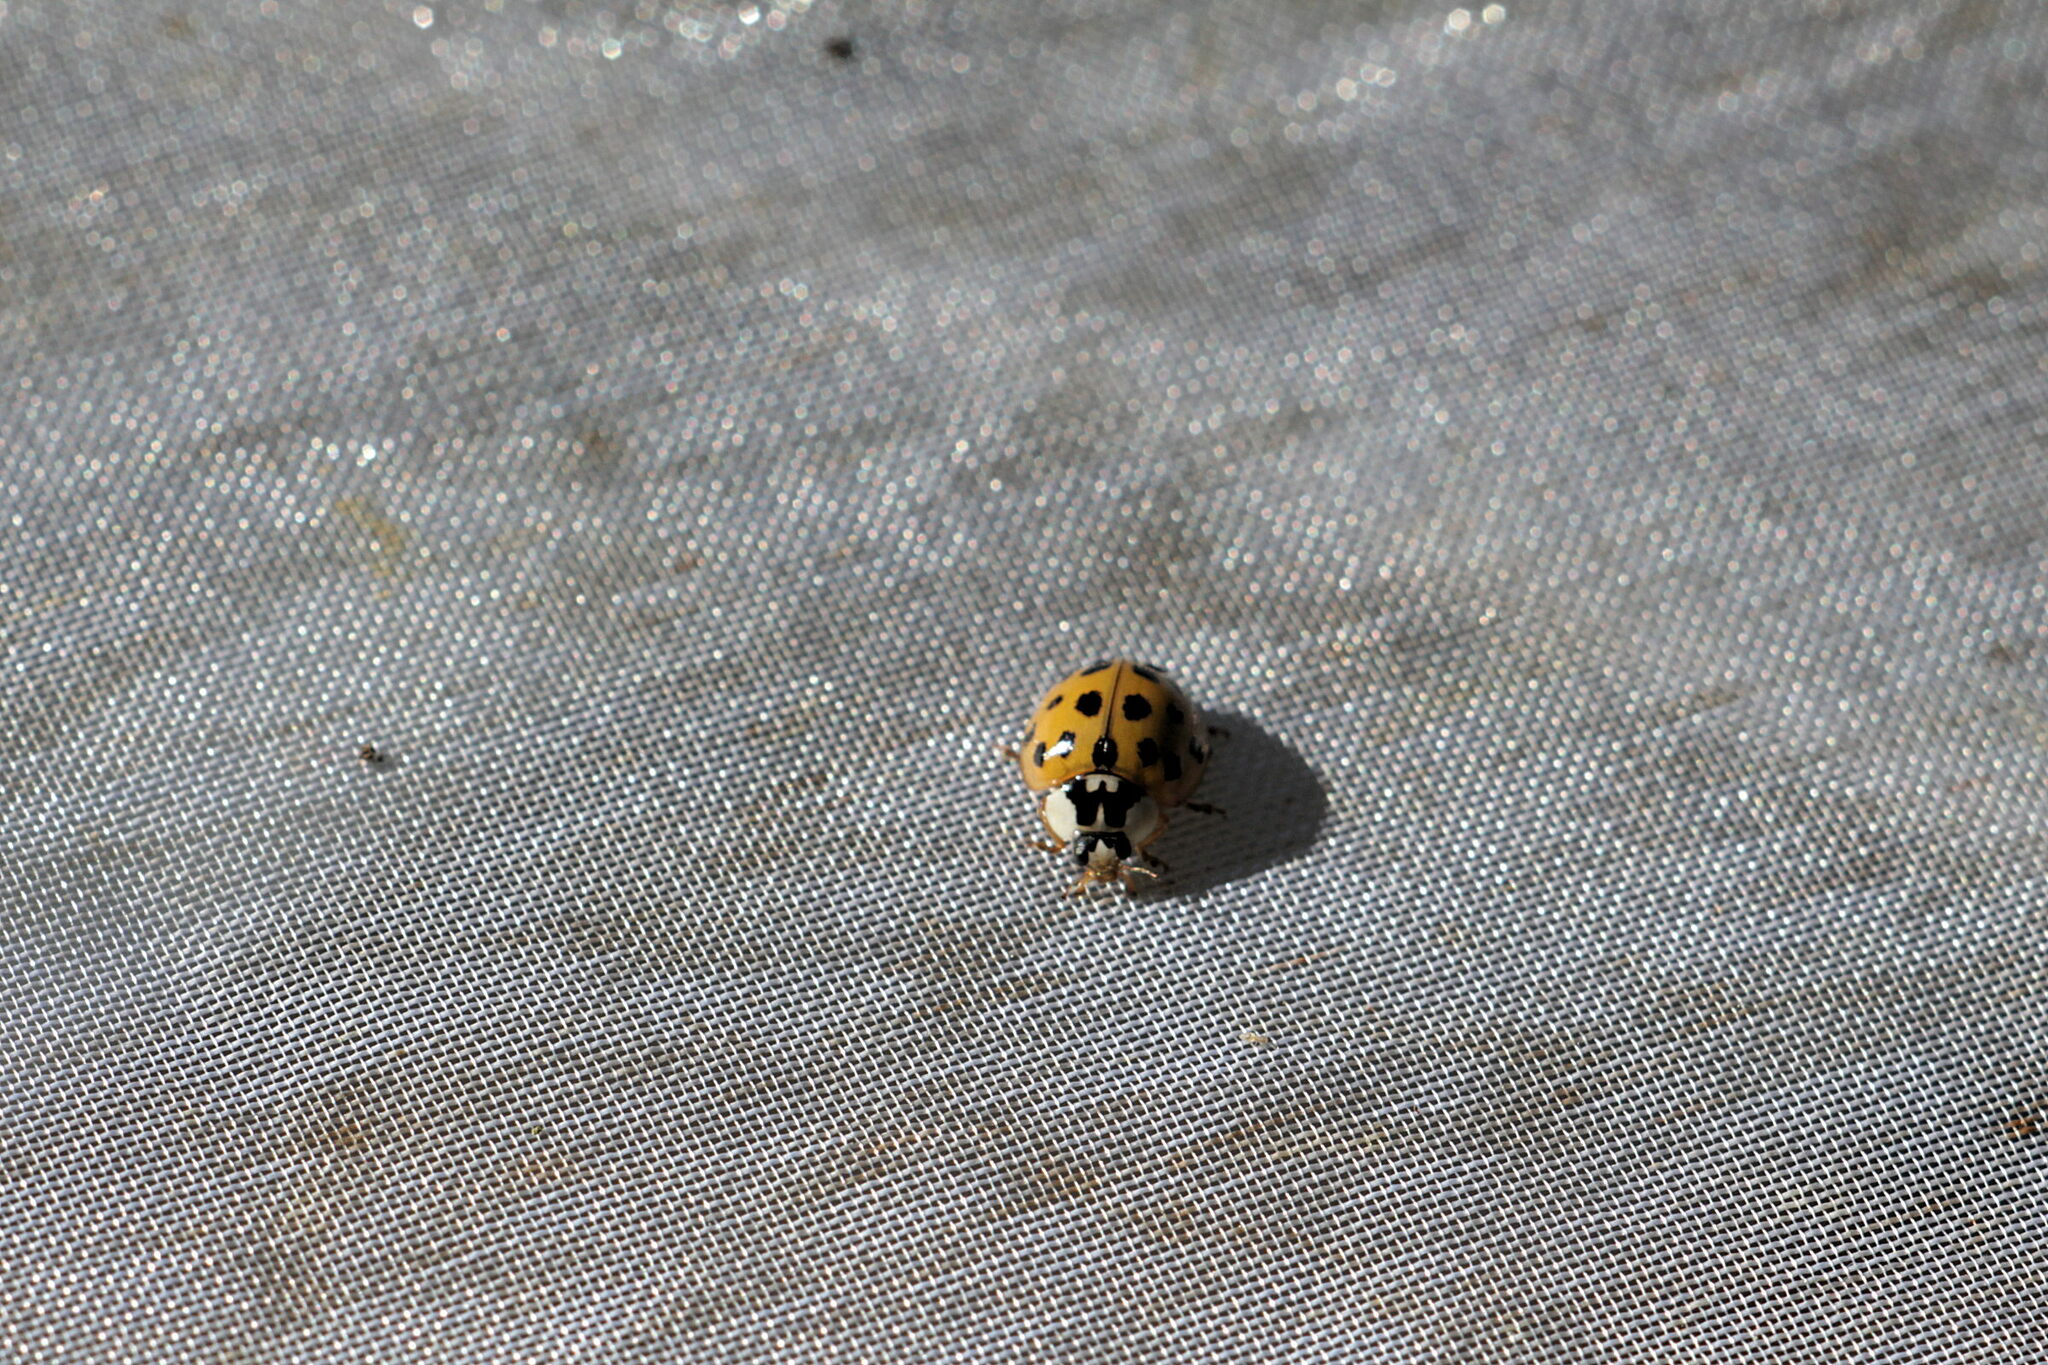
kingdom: Animalia
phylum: Arthropoda
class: Insecta
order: Coleoptera
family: Coccinellidae
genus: Harmonia
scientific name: Harmonia axyridis
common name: Harlequin ladybird
